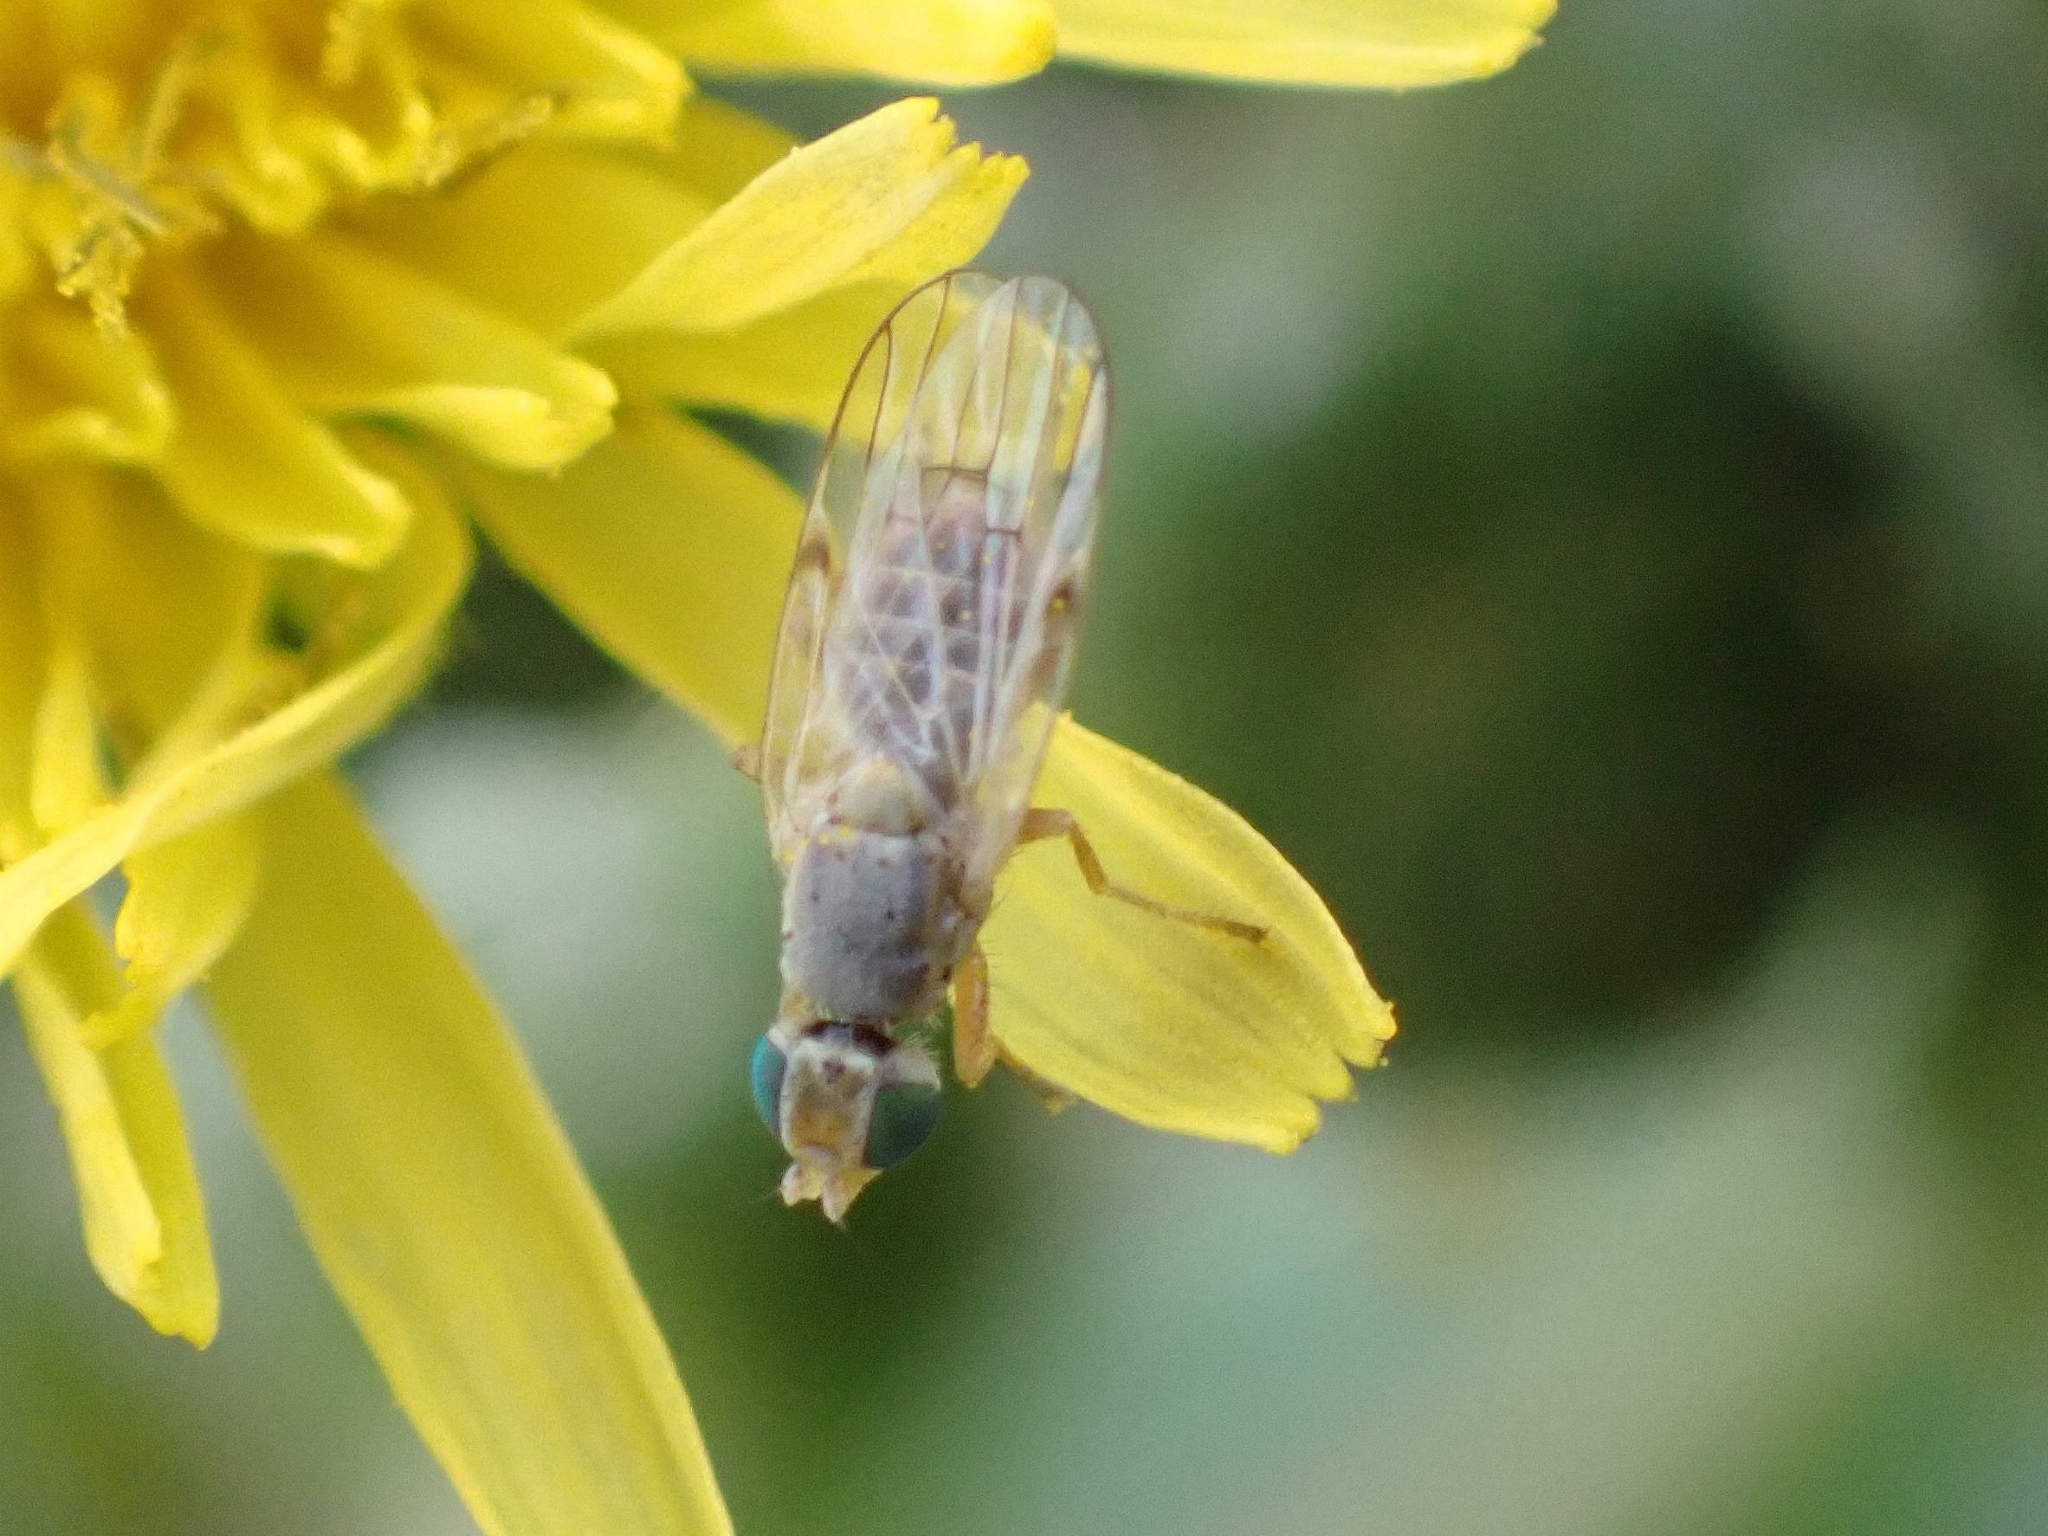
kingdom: Animalia
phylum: Arthropoda
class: Insecta
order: Diptera
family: Tephritidae
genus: Ensina
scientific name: Ensina decisa
